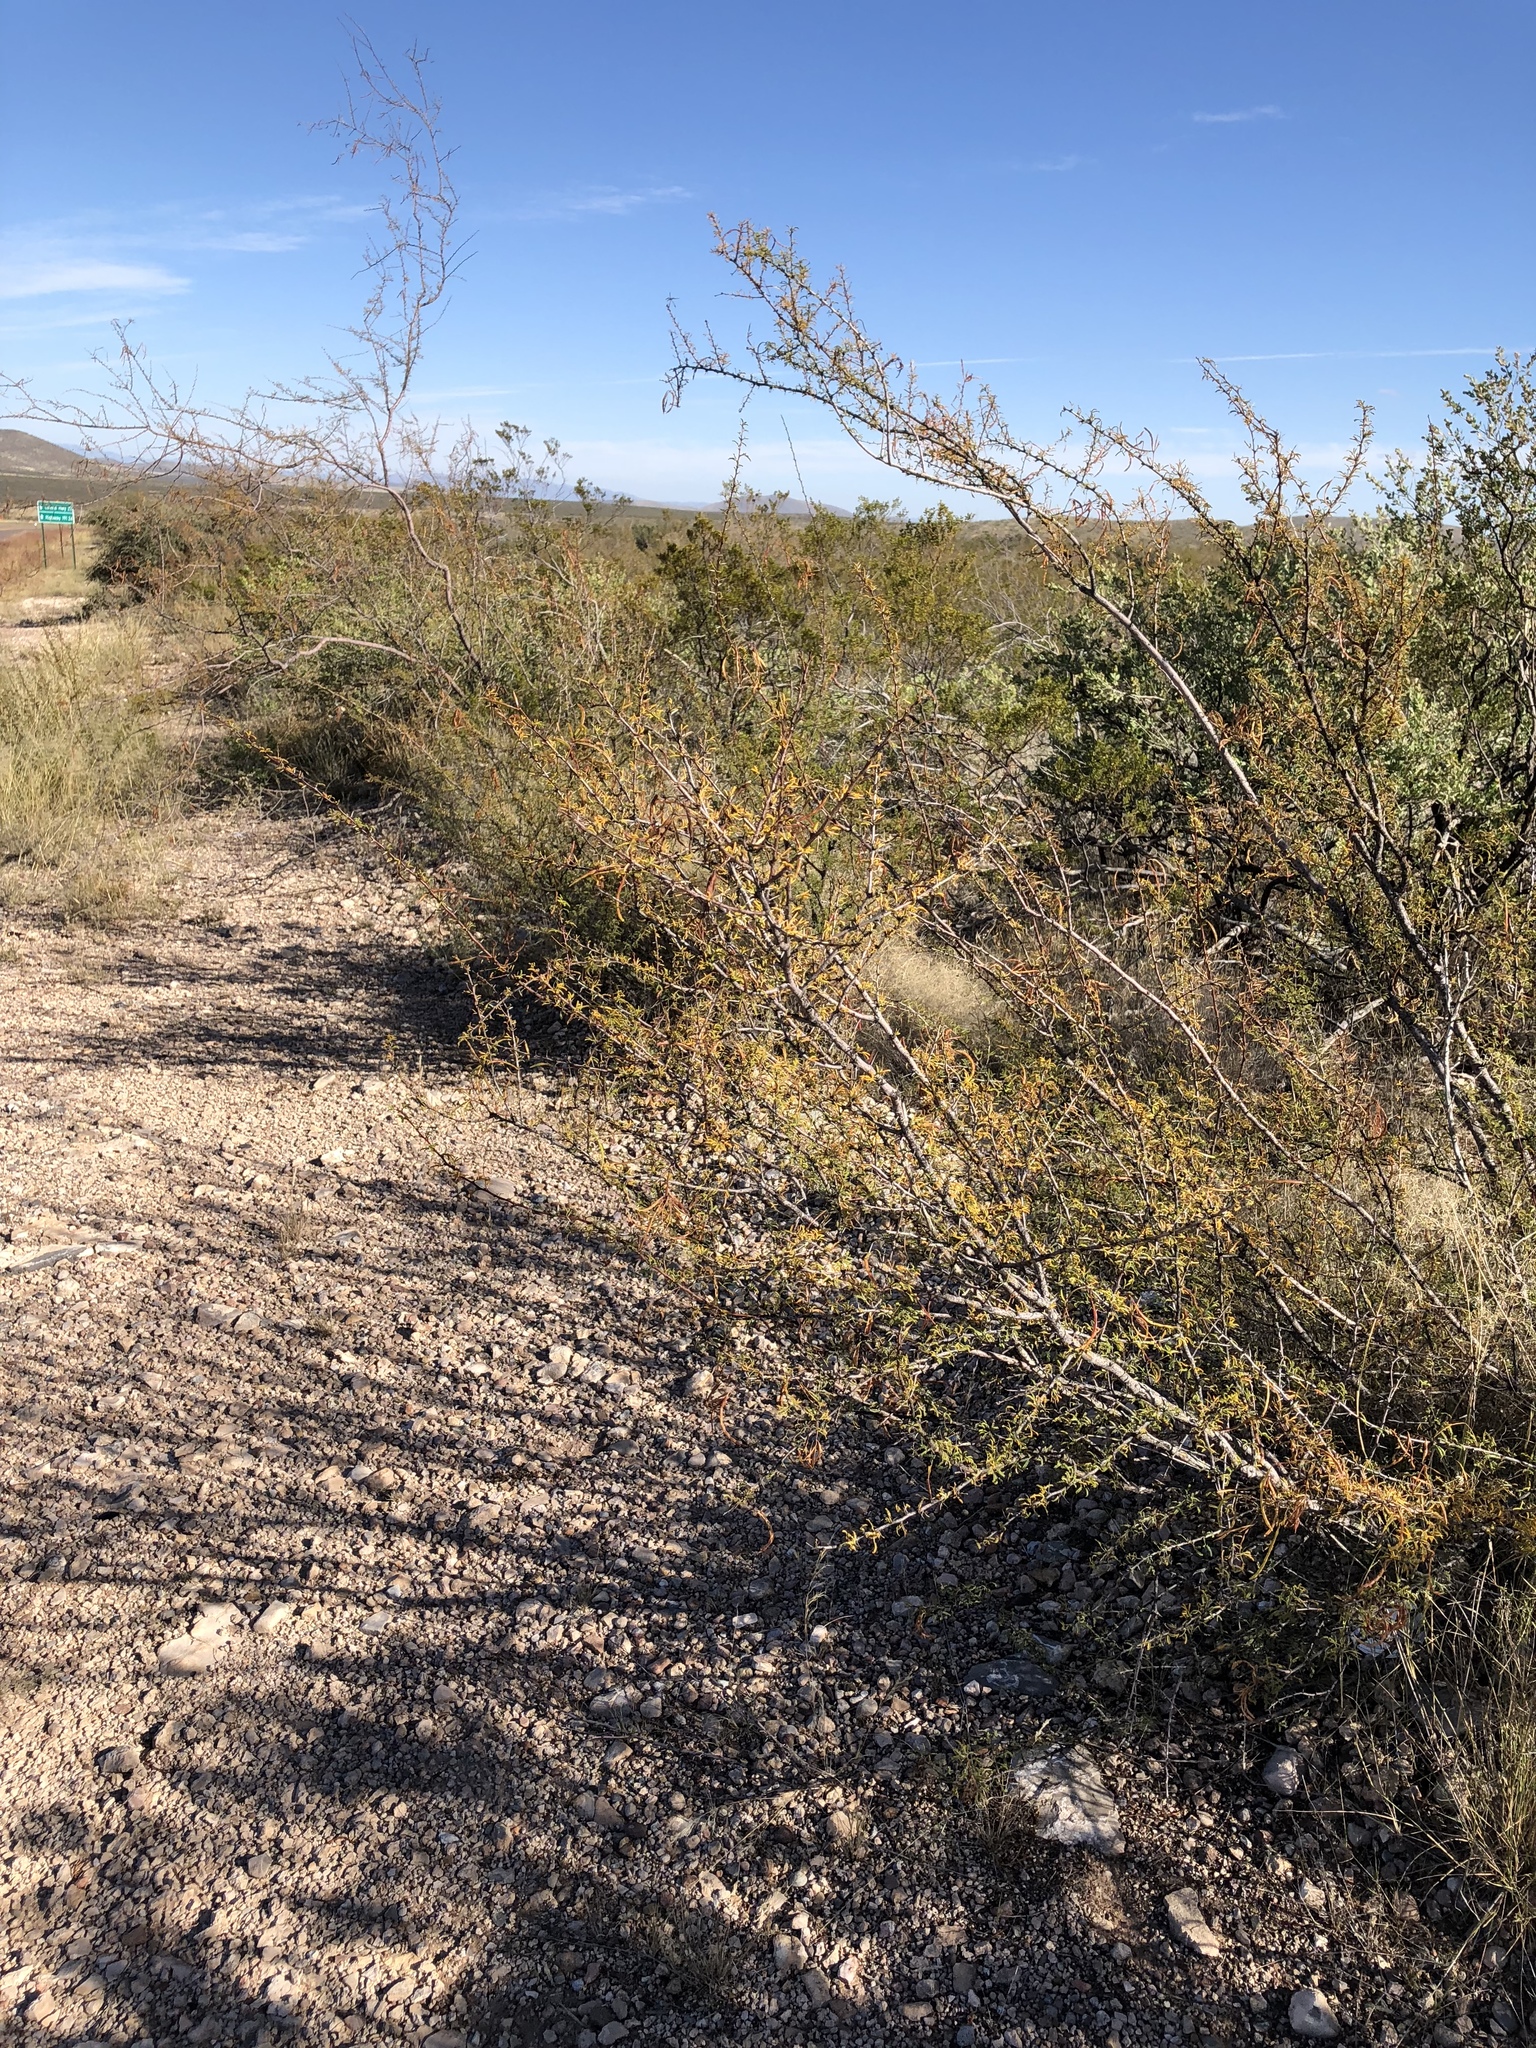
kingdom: Plantae
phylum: Tracheophyta
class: Magnoliopsida
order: Fabales
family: Fabaceae
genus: Vachellia
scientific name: Vachellia constricta
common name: Mescat acacia
